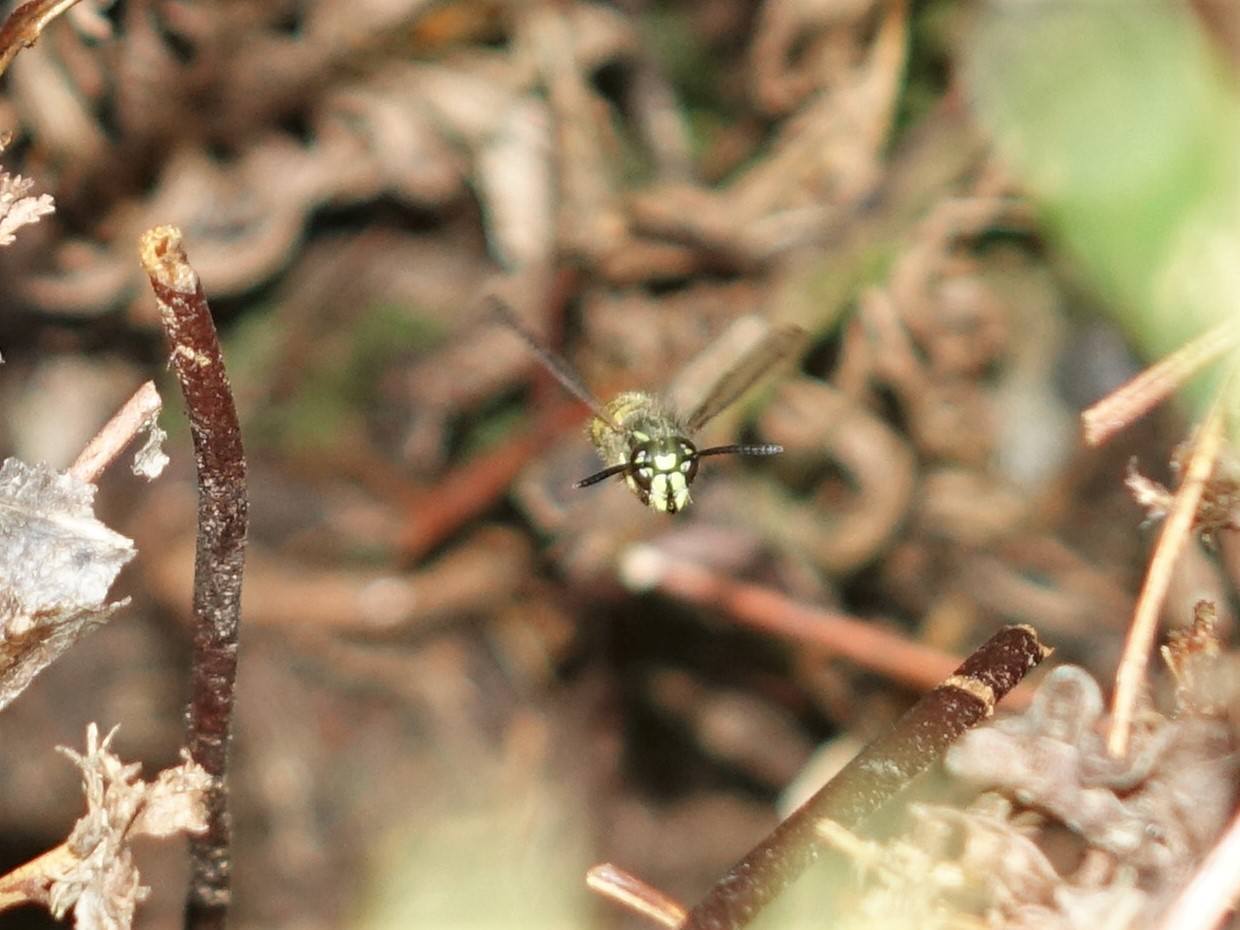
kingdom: Animalia
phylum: Arthropoda
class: Insecta
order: Hymenoptera
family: Vespidae
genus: Vespula
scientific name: Vespula vulgaris
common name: Common wasp
